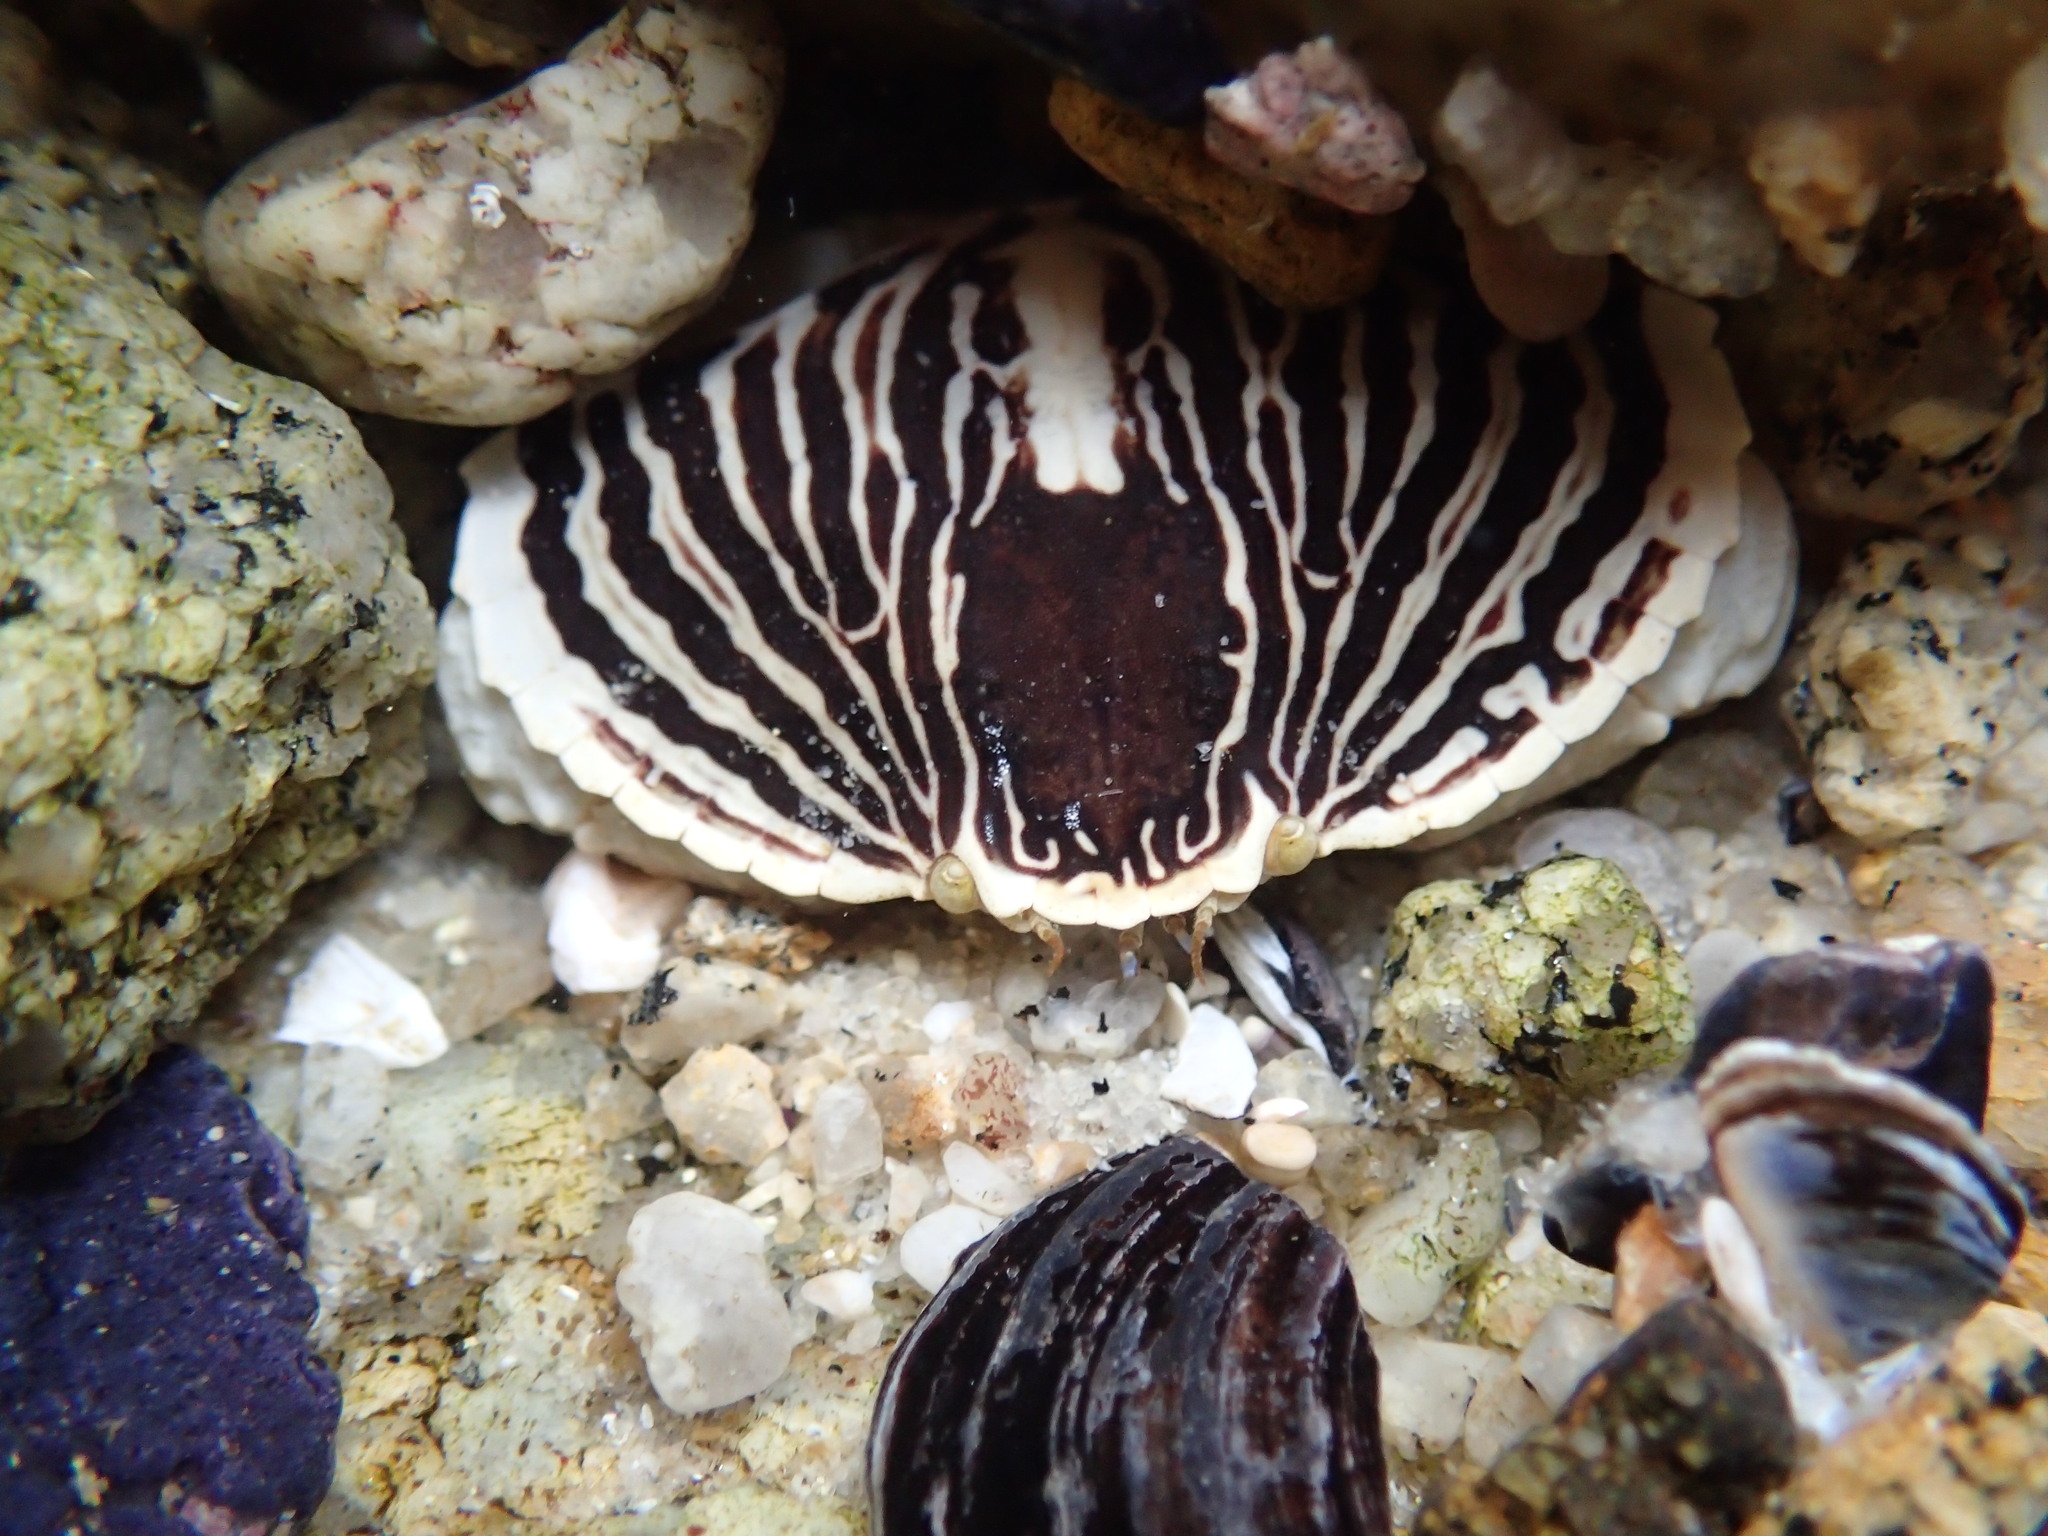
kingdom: Animalia
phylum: Arthropoda
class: Malacostraca
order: Decapoda
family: Cancridae
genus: Cancer
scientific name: Cancer productus
